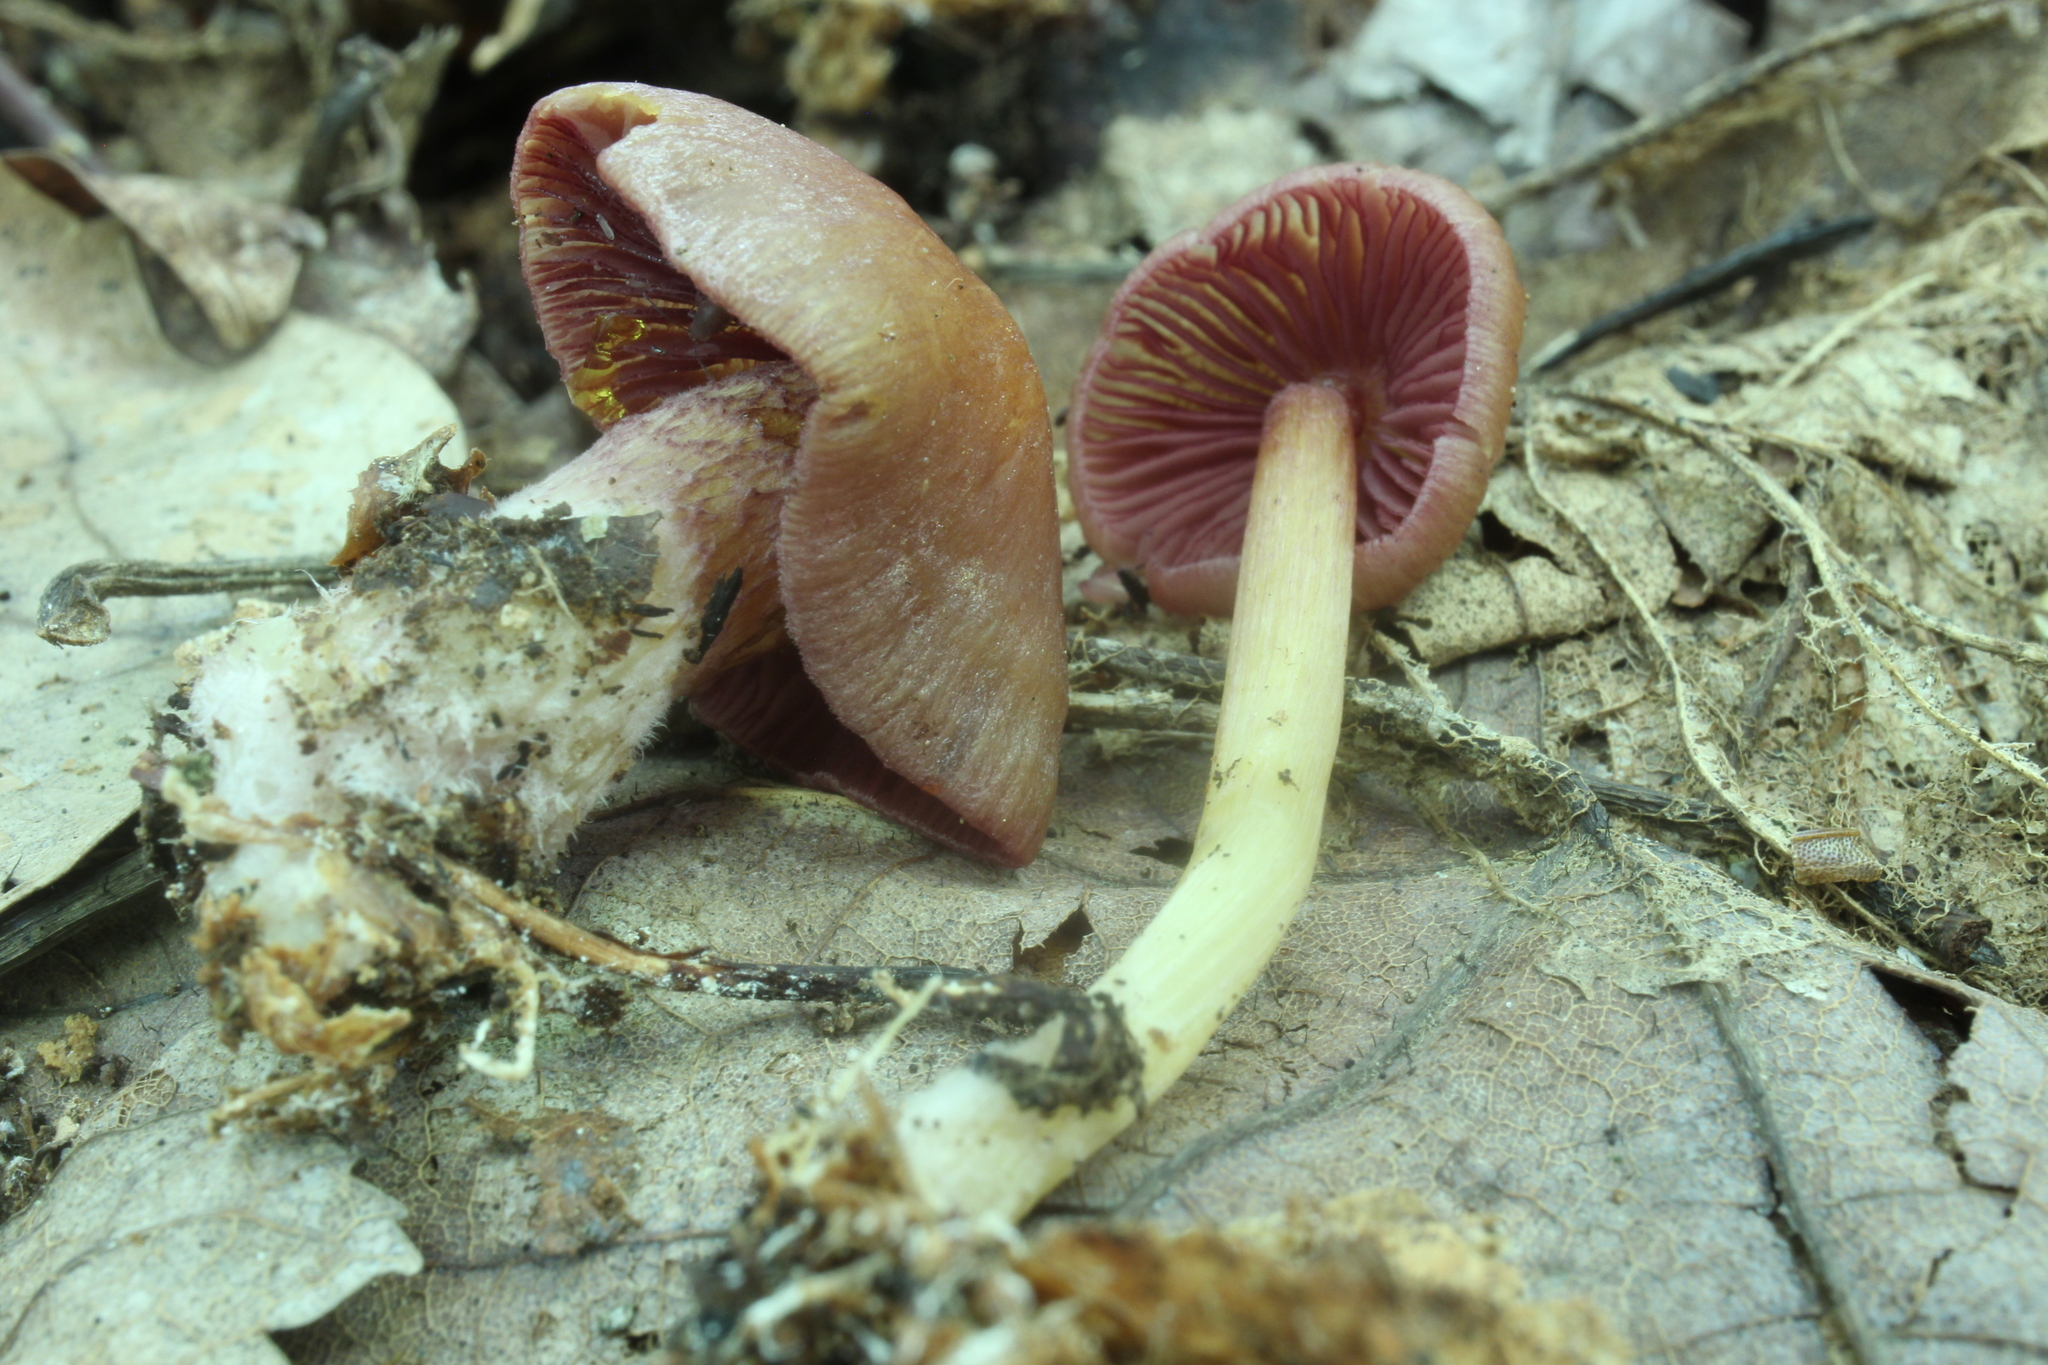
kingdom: Fungi
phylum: Basidiomycota
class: Agaricomycetes
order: Agaricales
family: Mycenaceae
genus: Mycena
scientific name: Mycena denticulata
